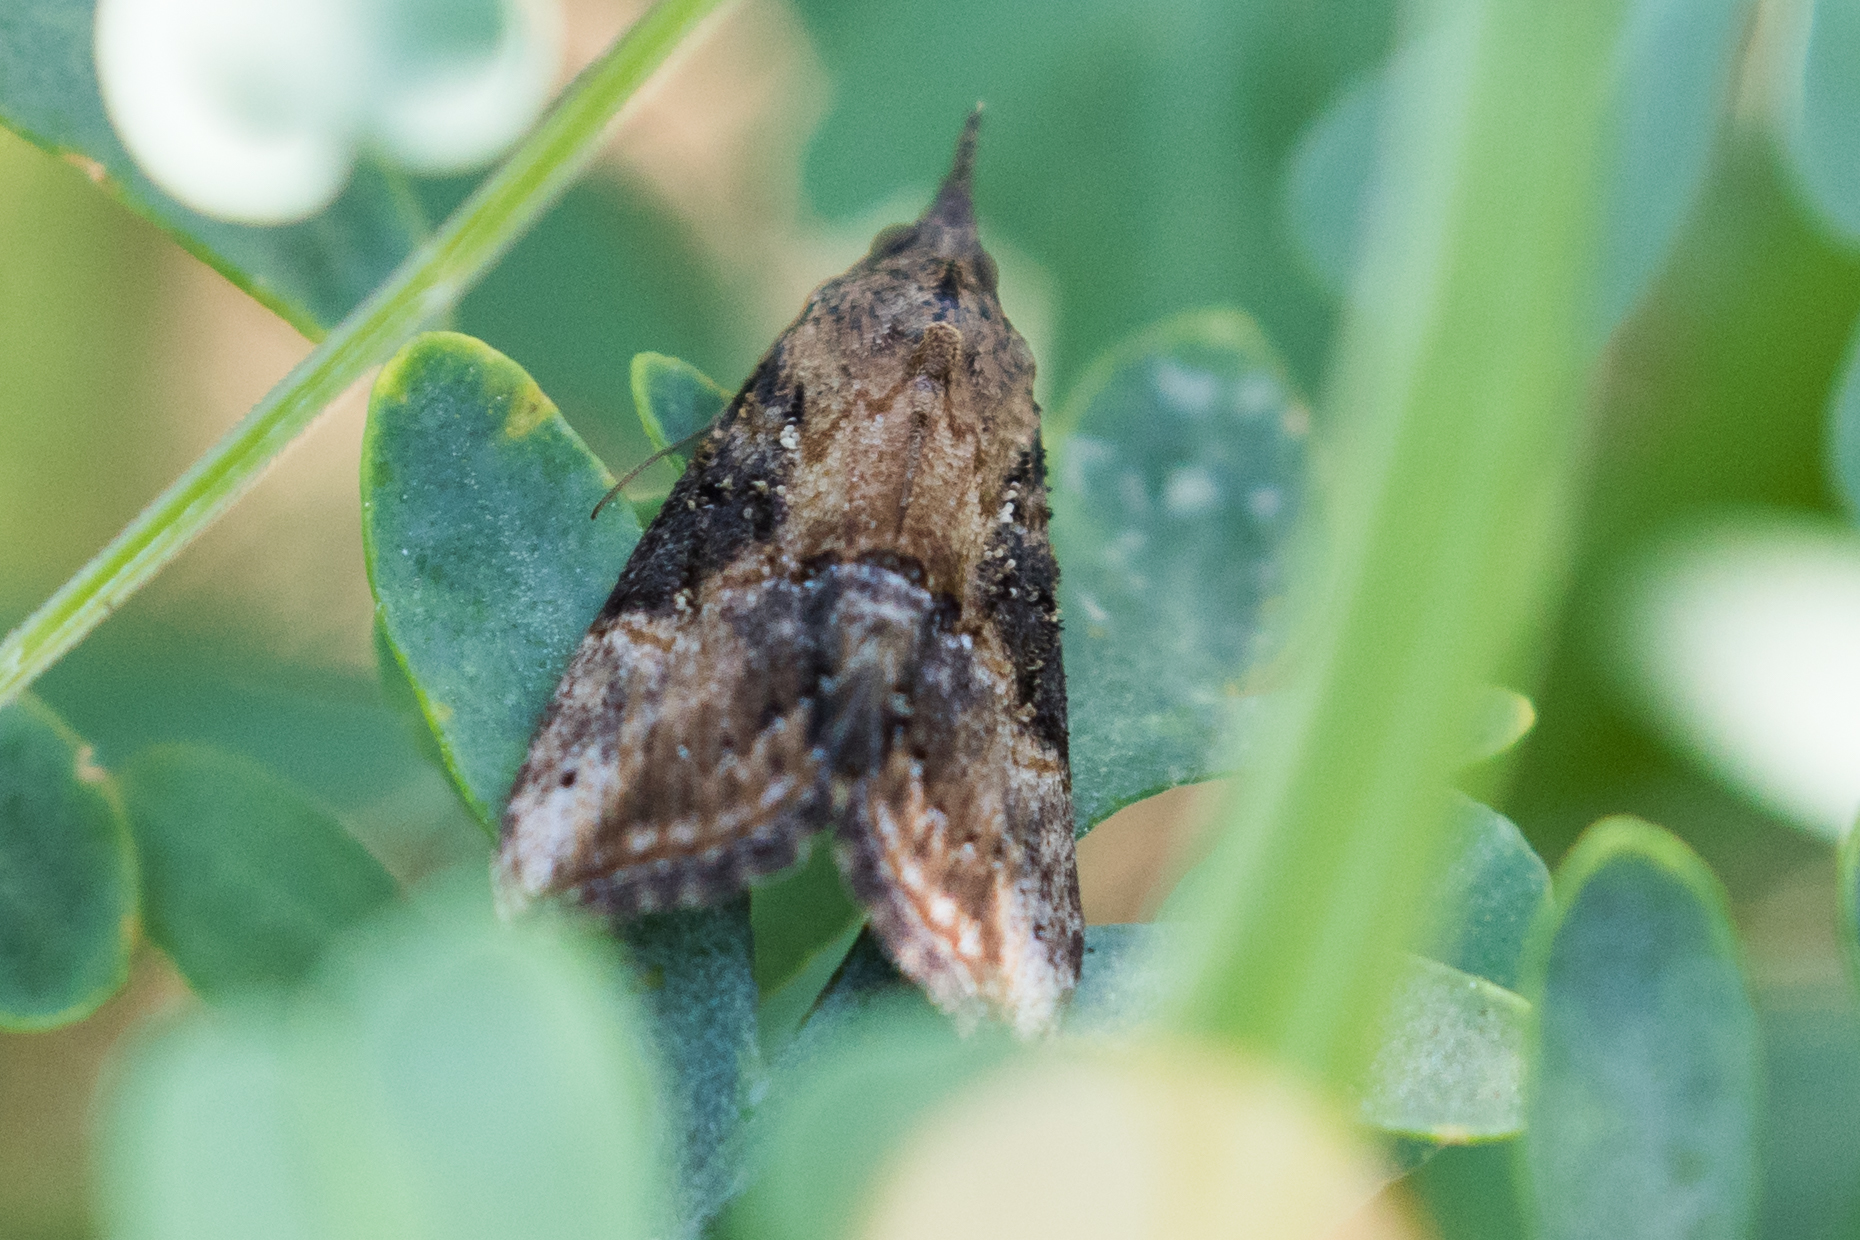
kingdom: Animalia
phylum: Arthropoda
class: Insecta
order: Lepidoptera
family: Erebidae
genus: Hypena
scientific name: Hypena scabra
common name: Green cloverworm
